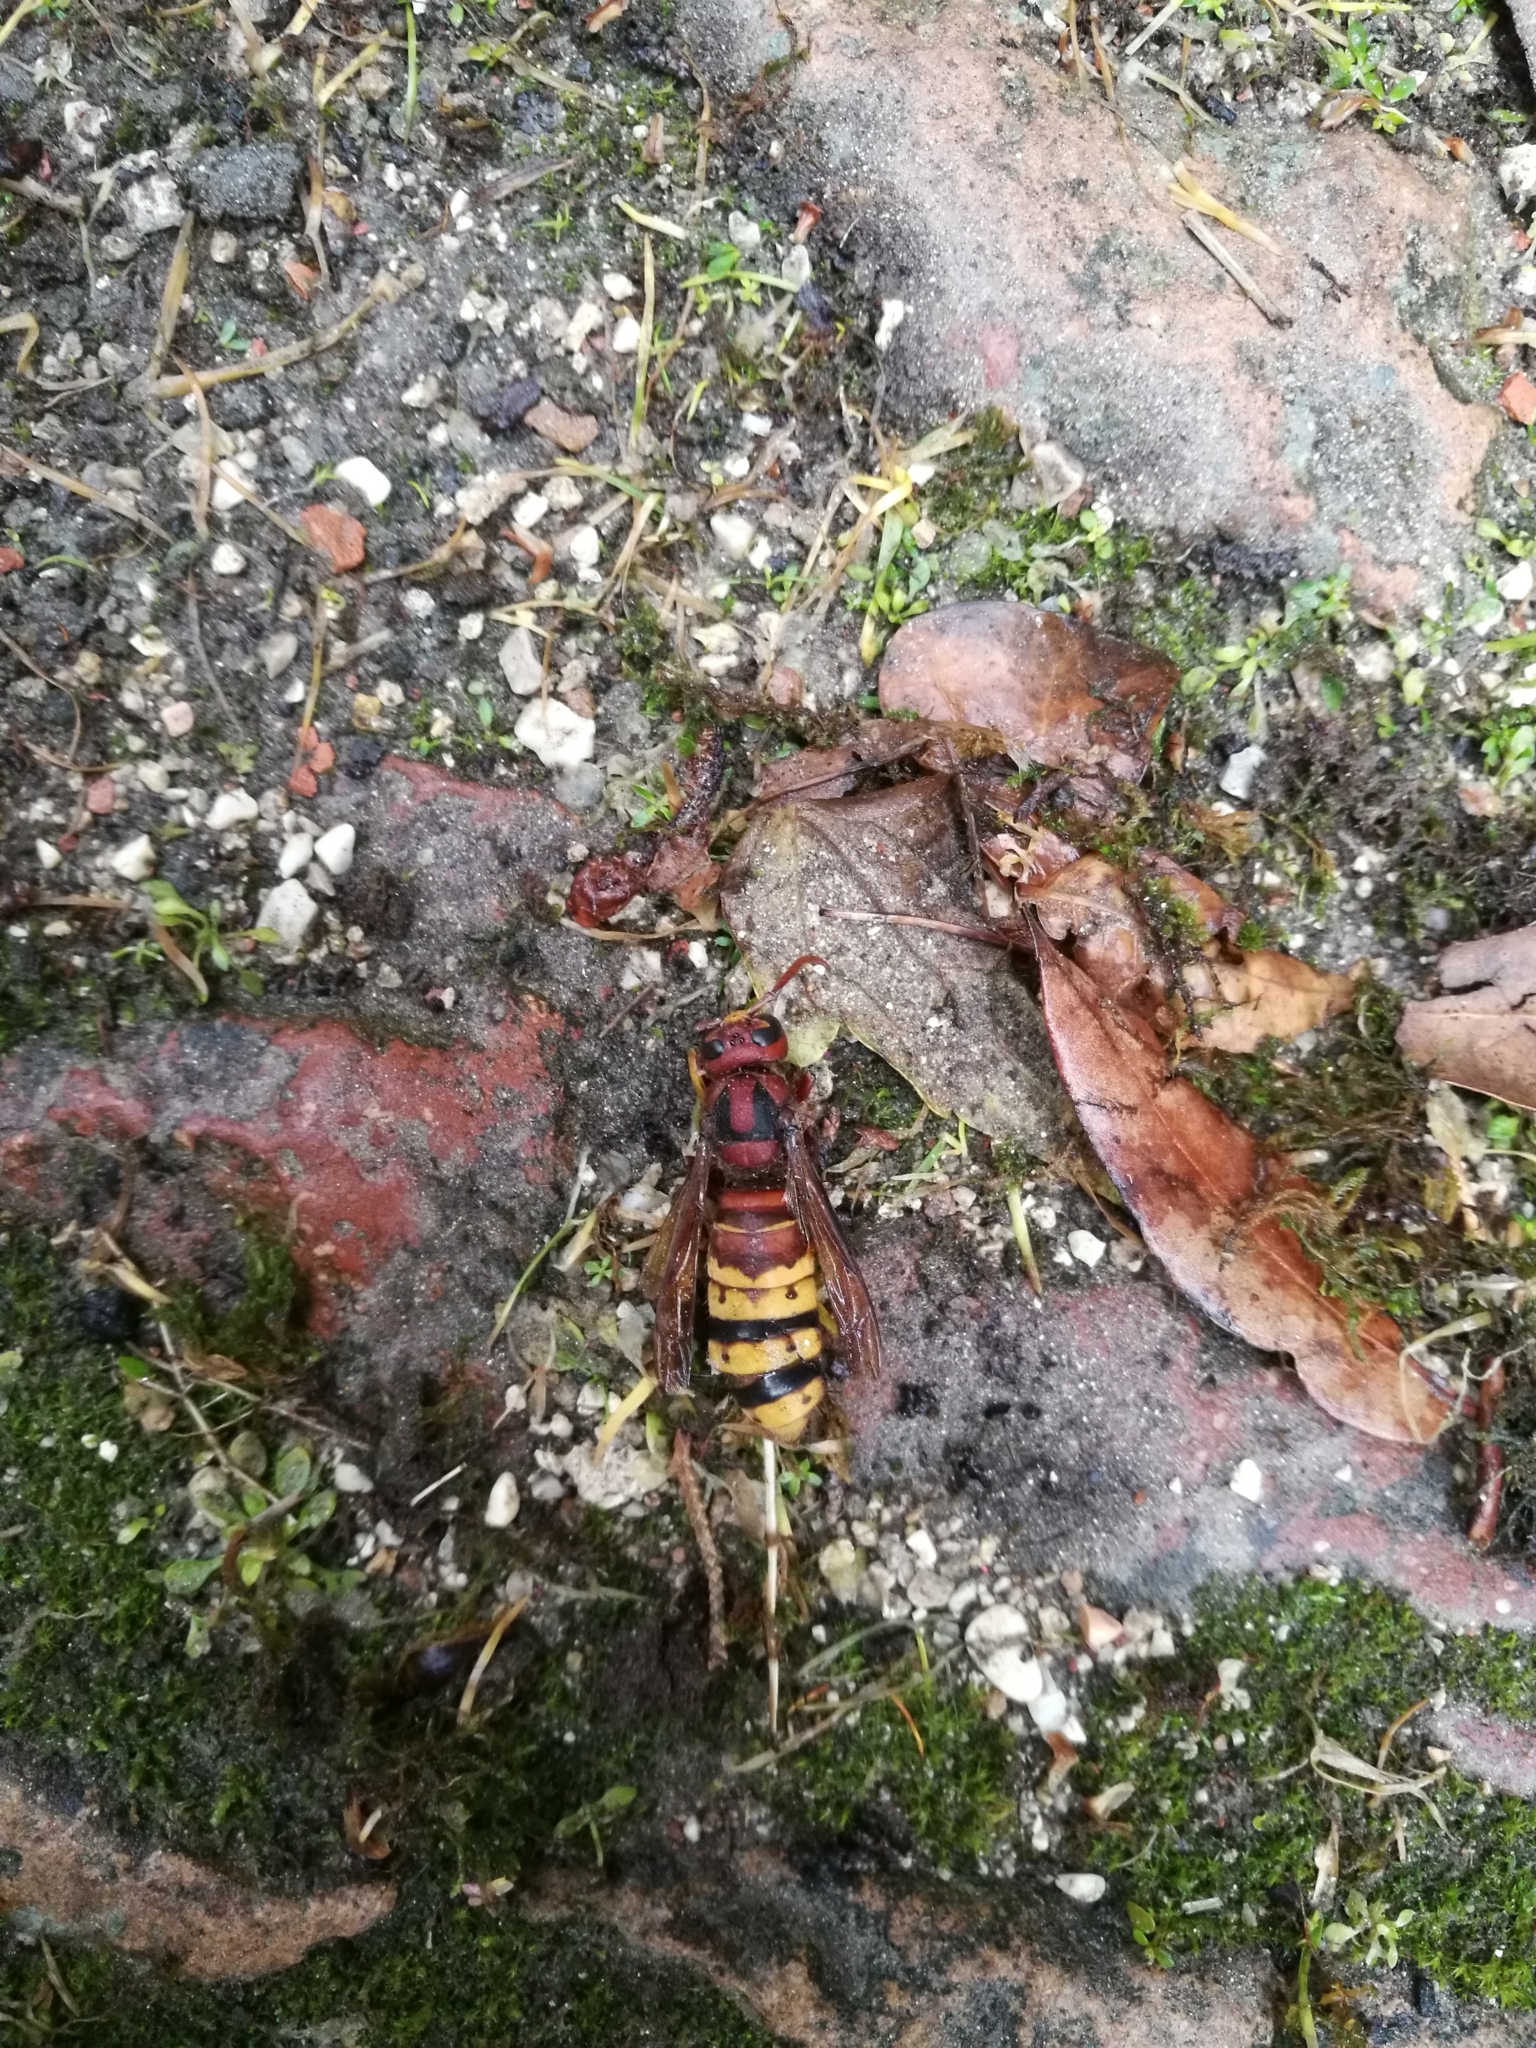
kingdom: Animalia
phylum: Arthropoda
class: Insecta
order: Hymenoptera
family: Vespidae
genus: Vespa
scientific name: Vespa crabro
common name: Hornet
